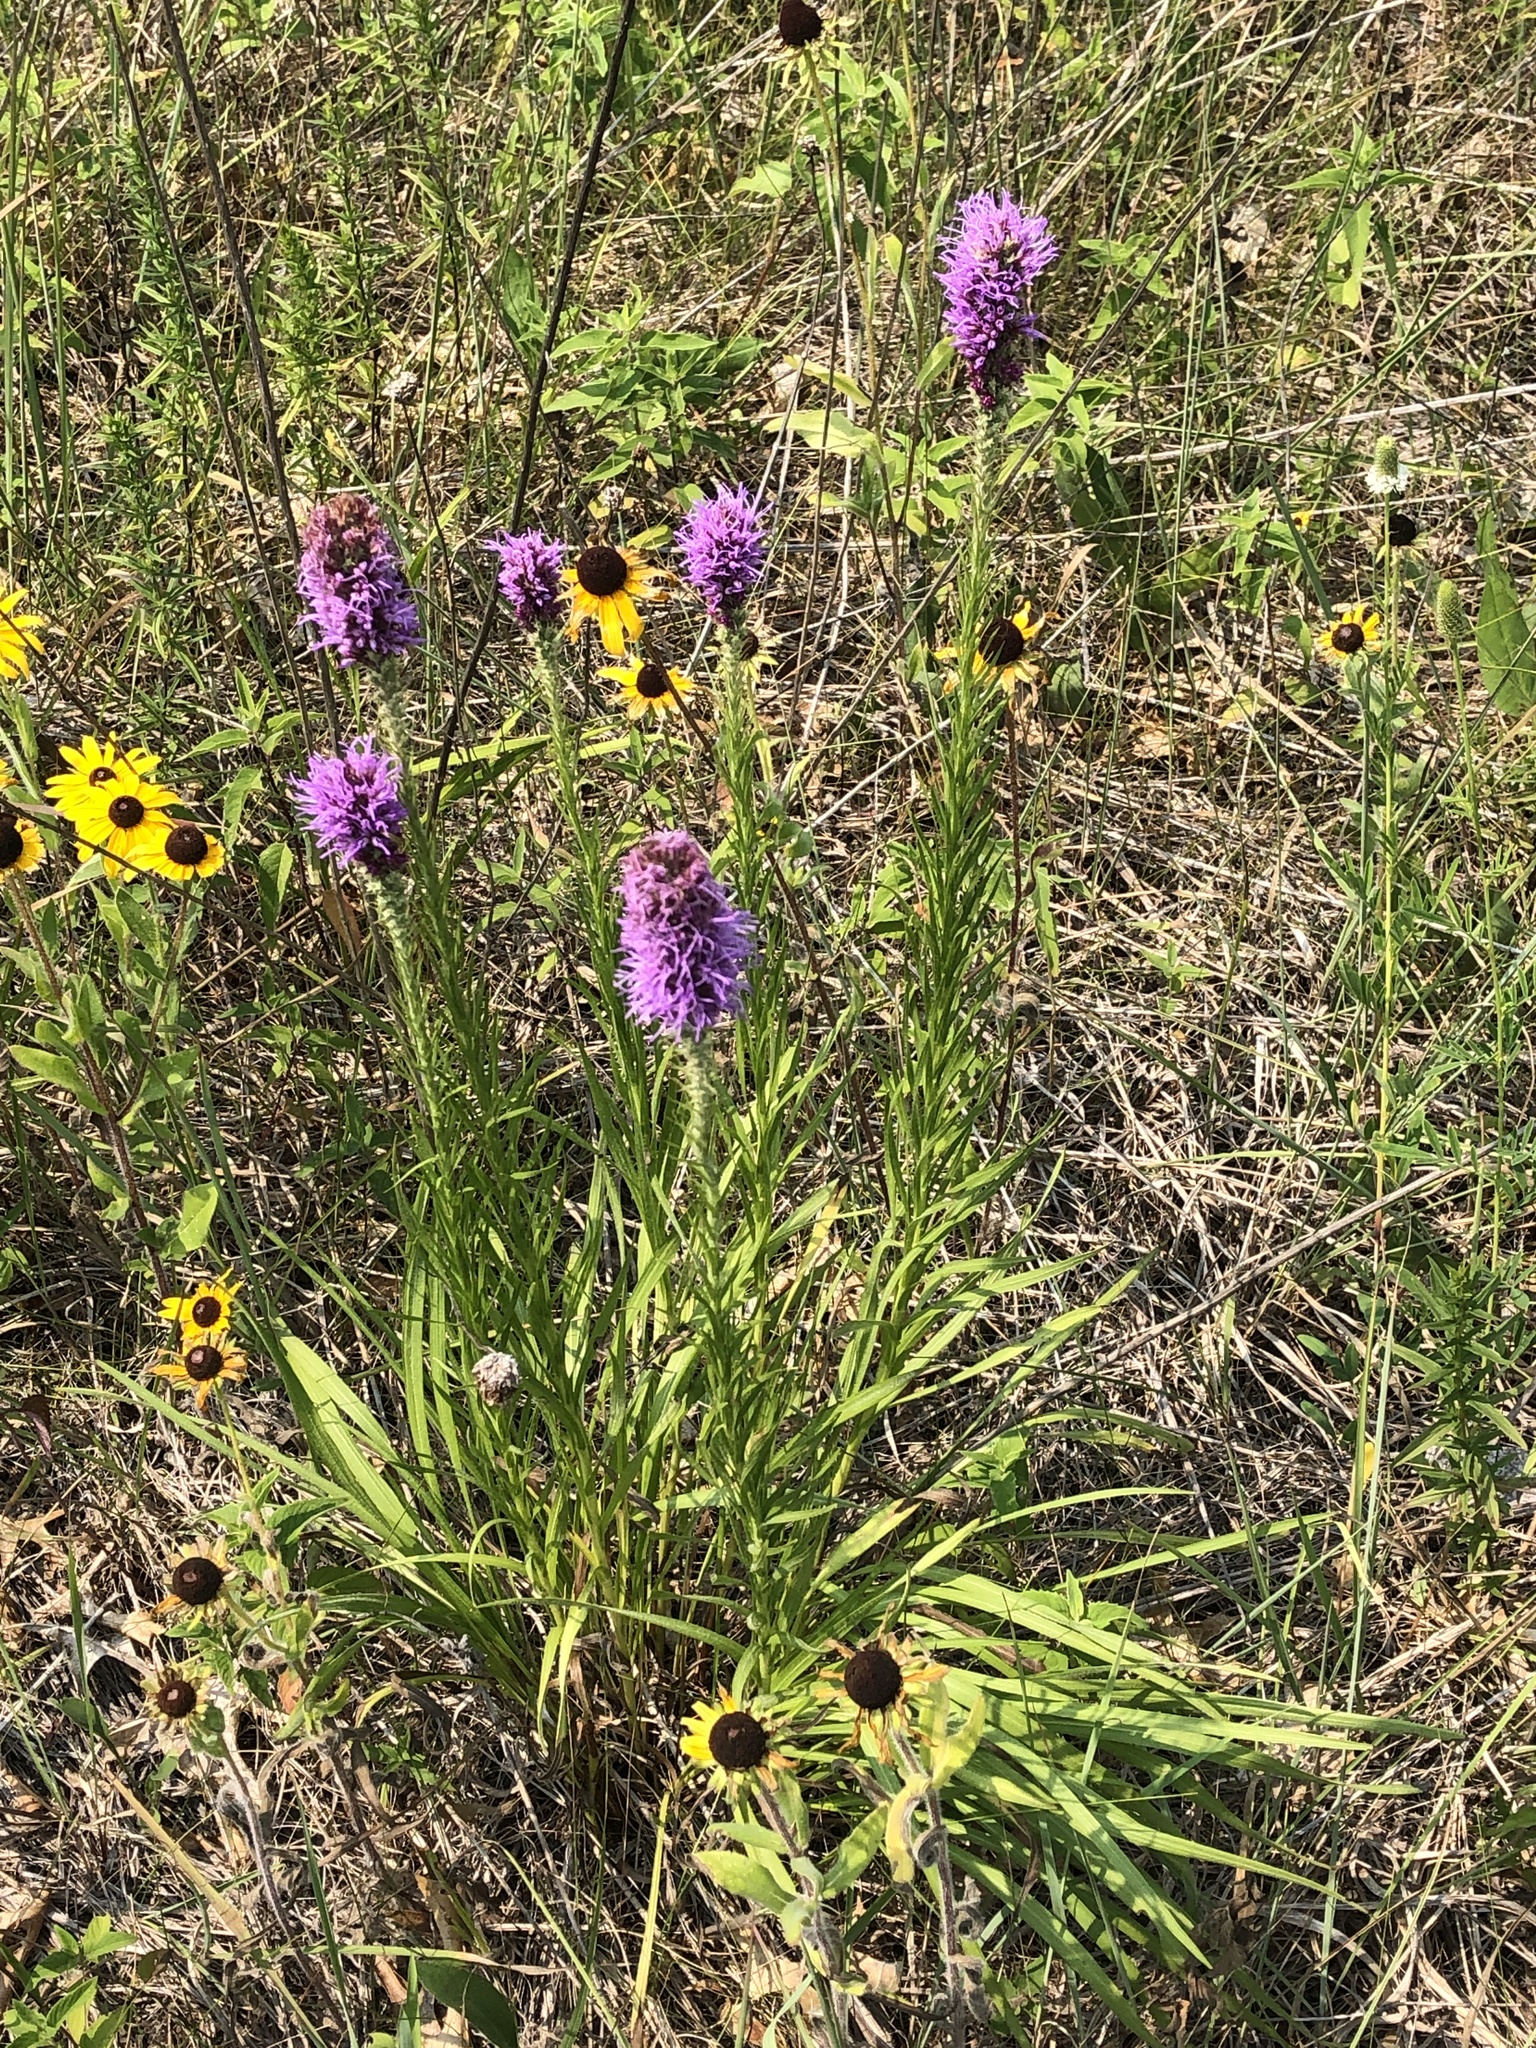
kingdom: Plantae
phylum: Tracheophyta
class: Magnoliopsida
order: Asterales
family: Asteraceae
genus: Liatris
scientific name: Liatris pycnostachya
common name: Cattail gayfeather
